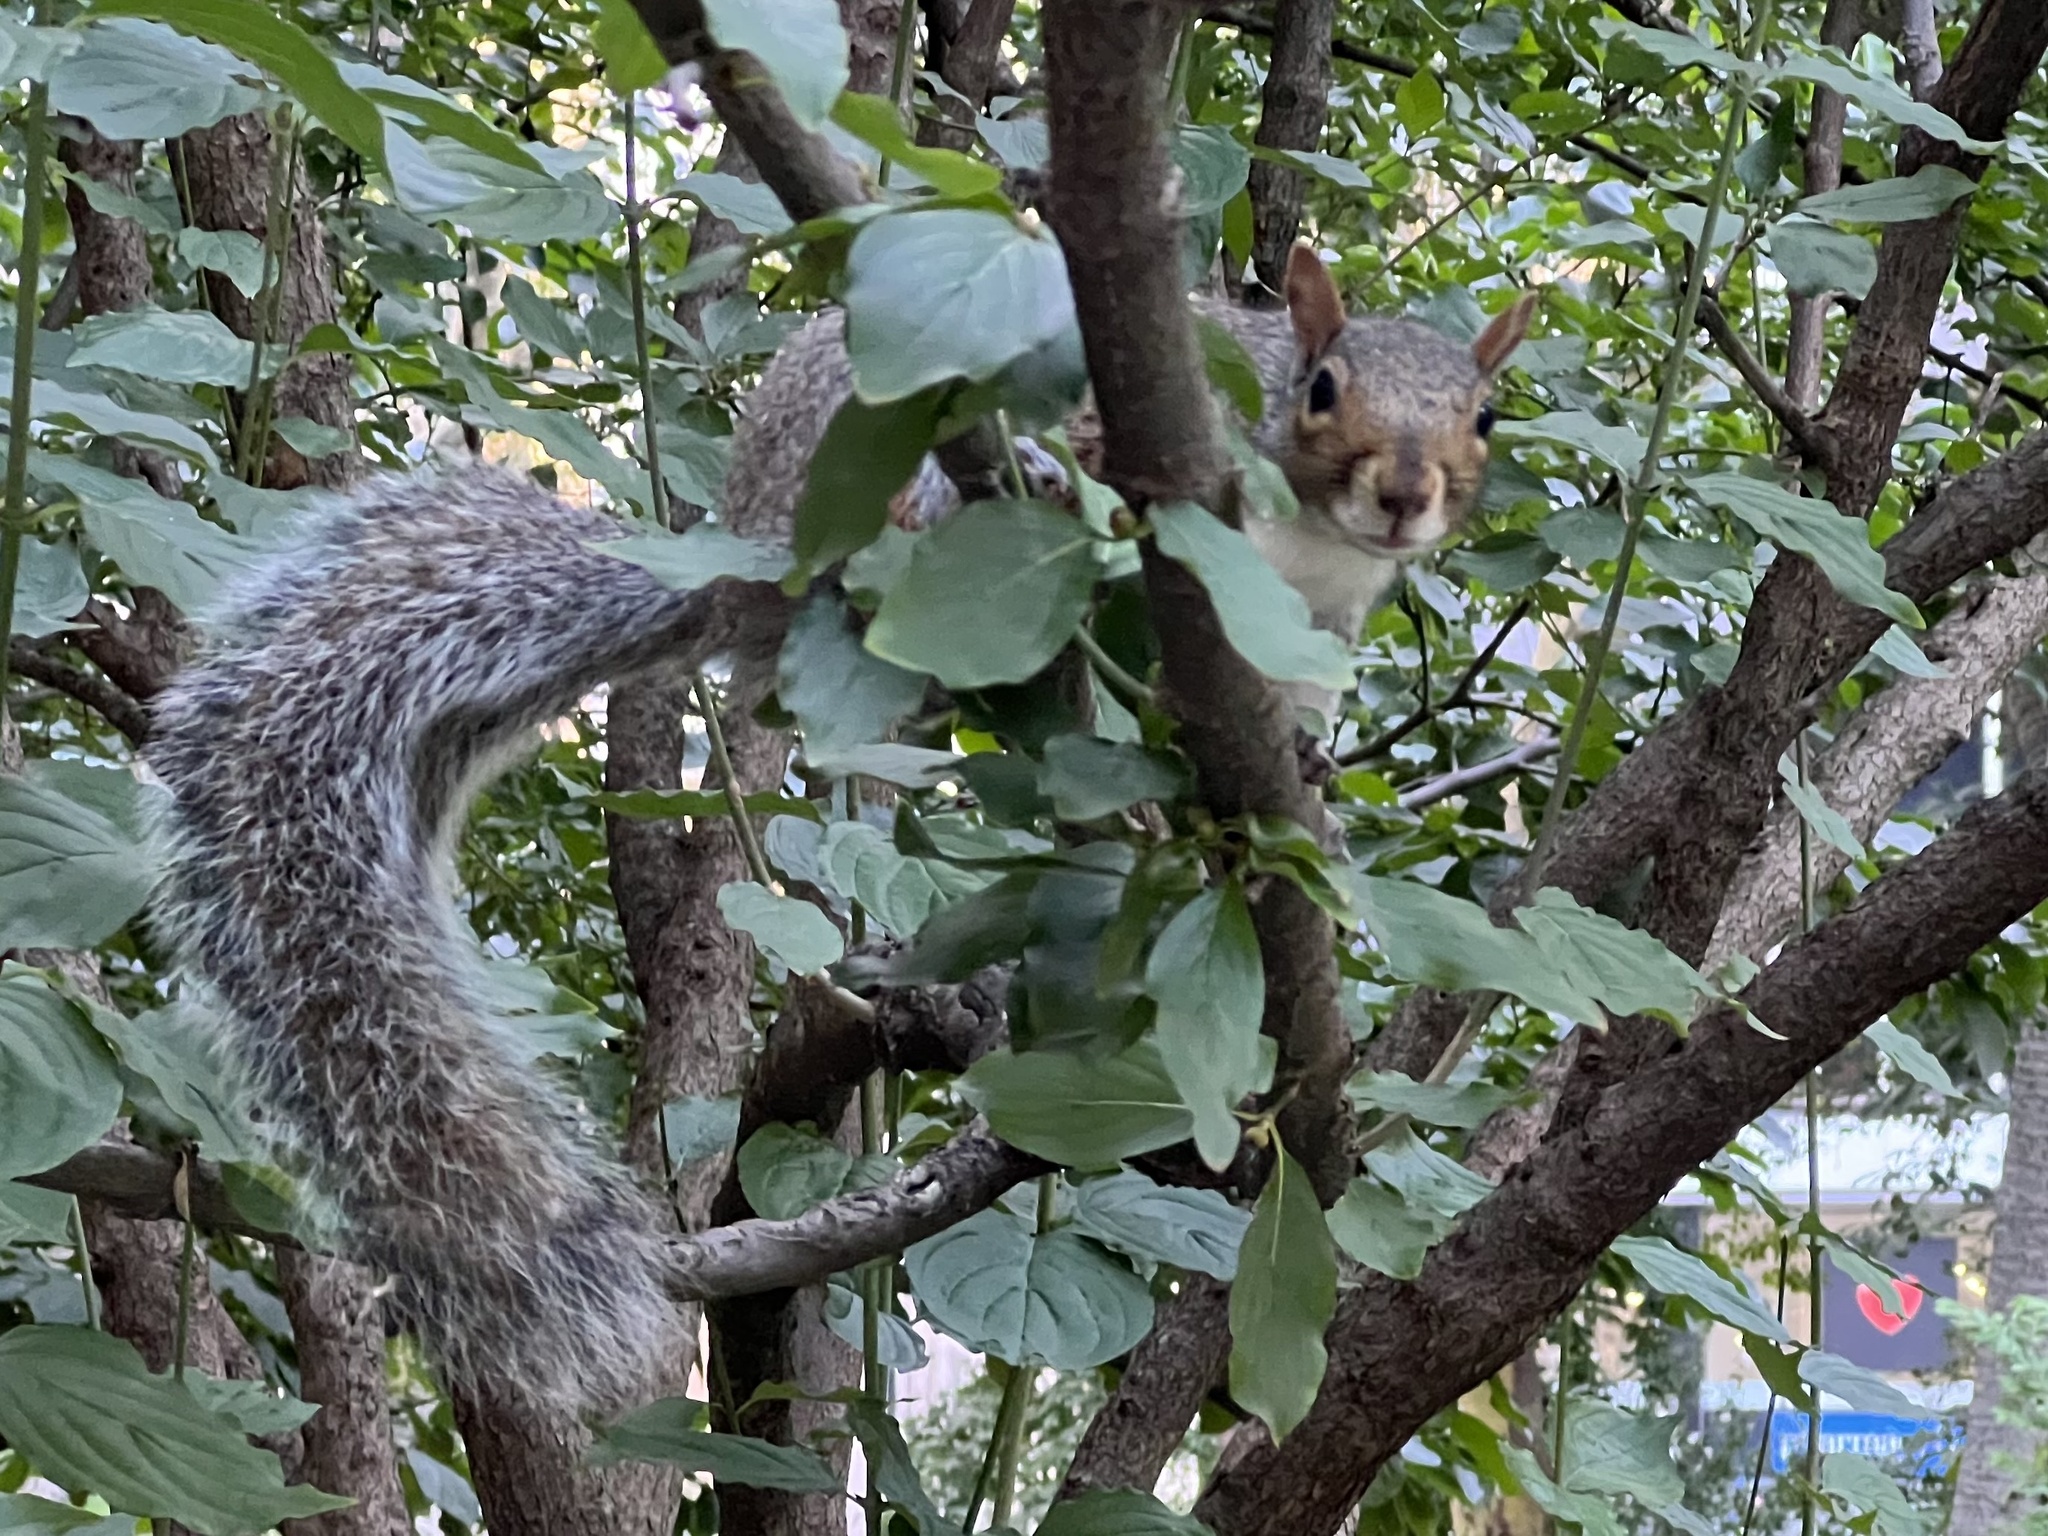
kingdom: Animalia
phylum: Chordata
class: Mammalia
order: Rodentia
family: Sciuridae
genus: Sciurus
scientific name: Sciurus carolinensis
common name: Eastern gray squirrel
